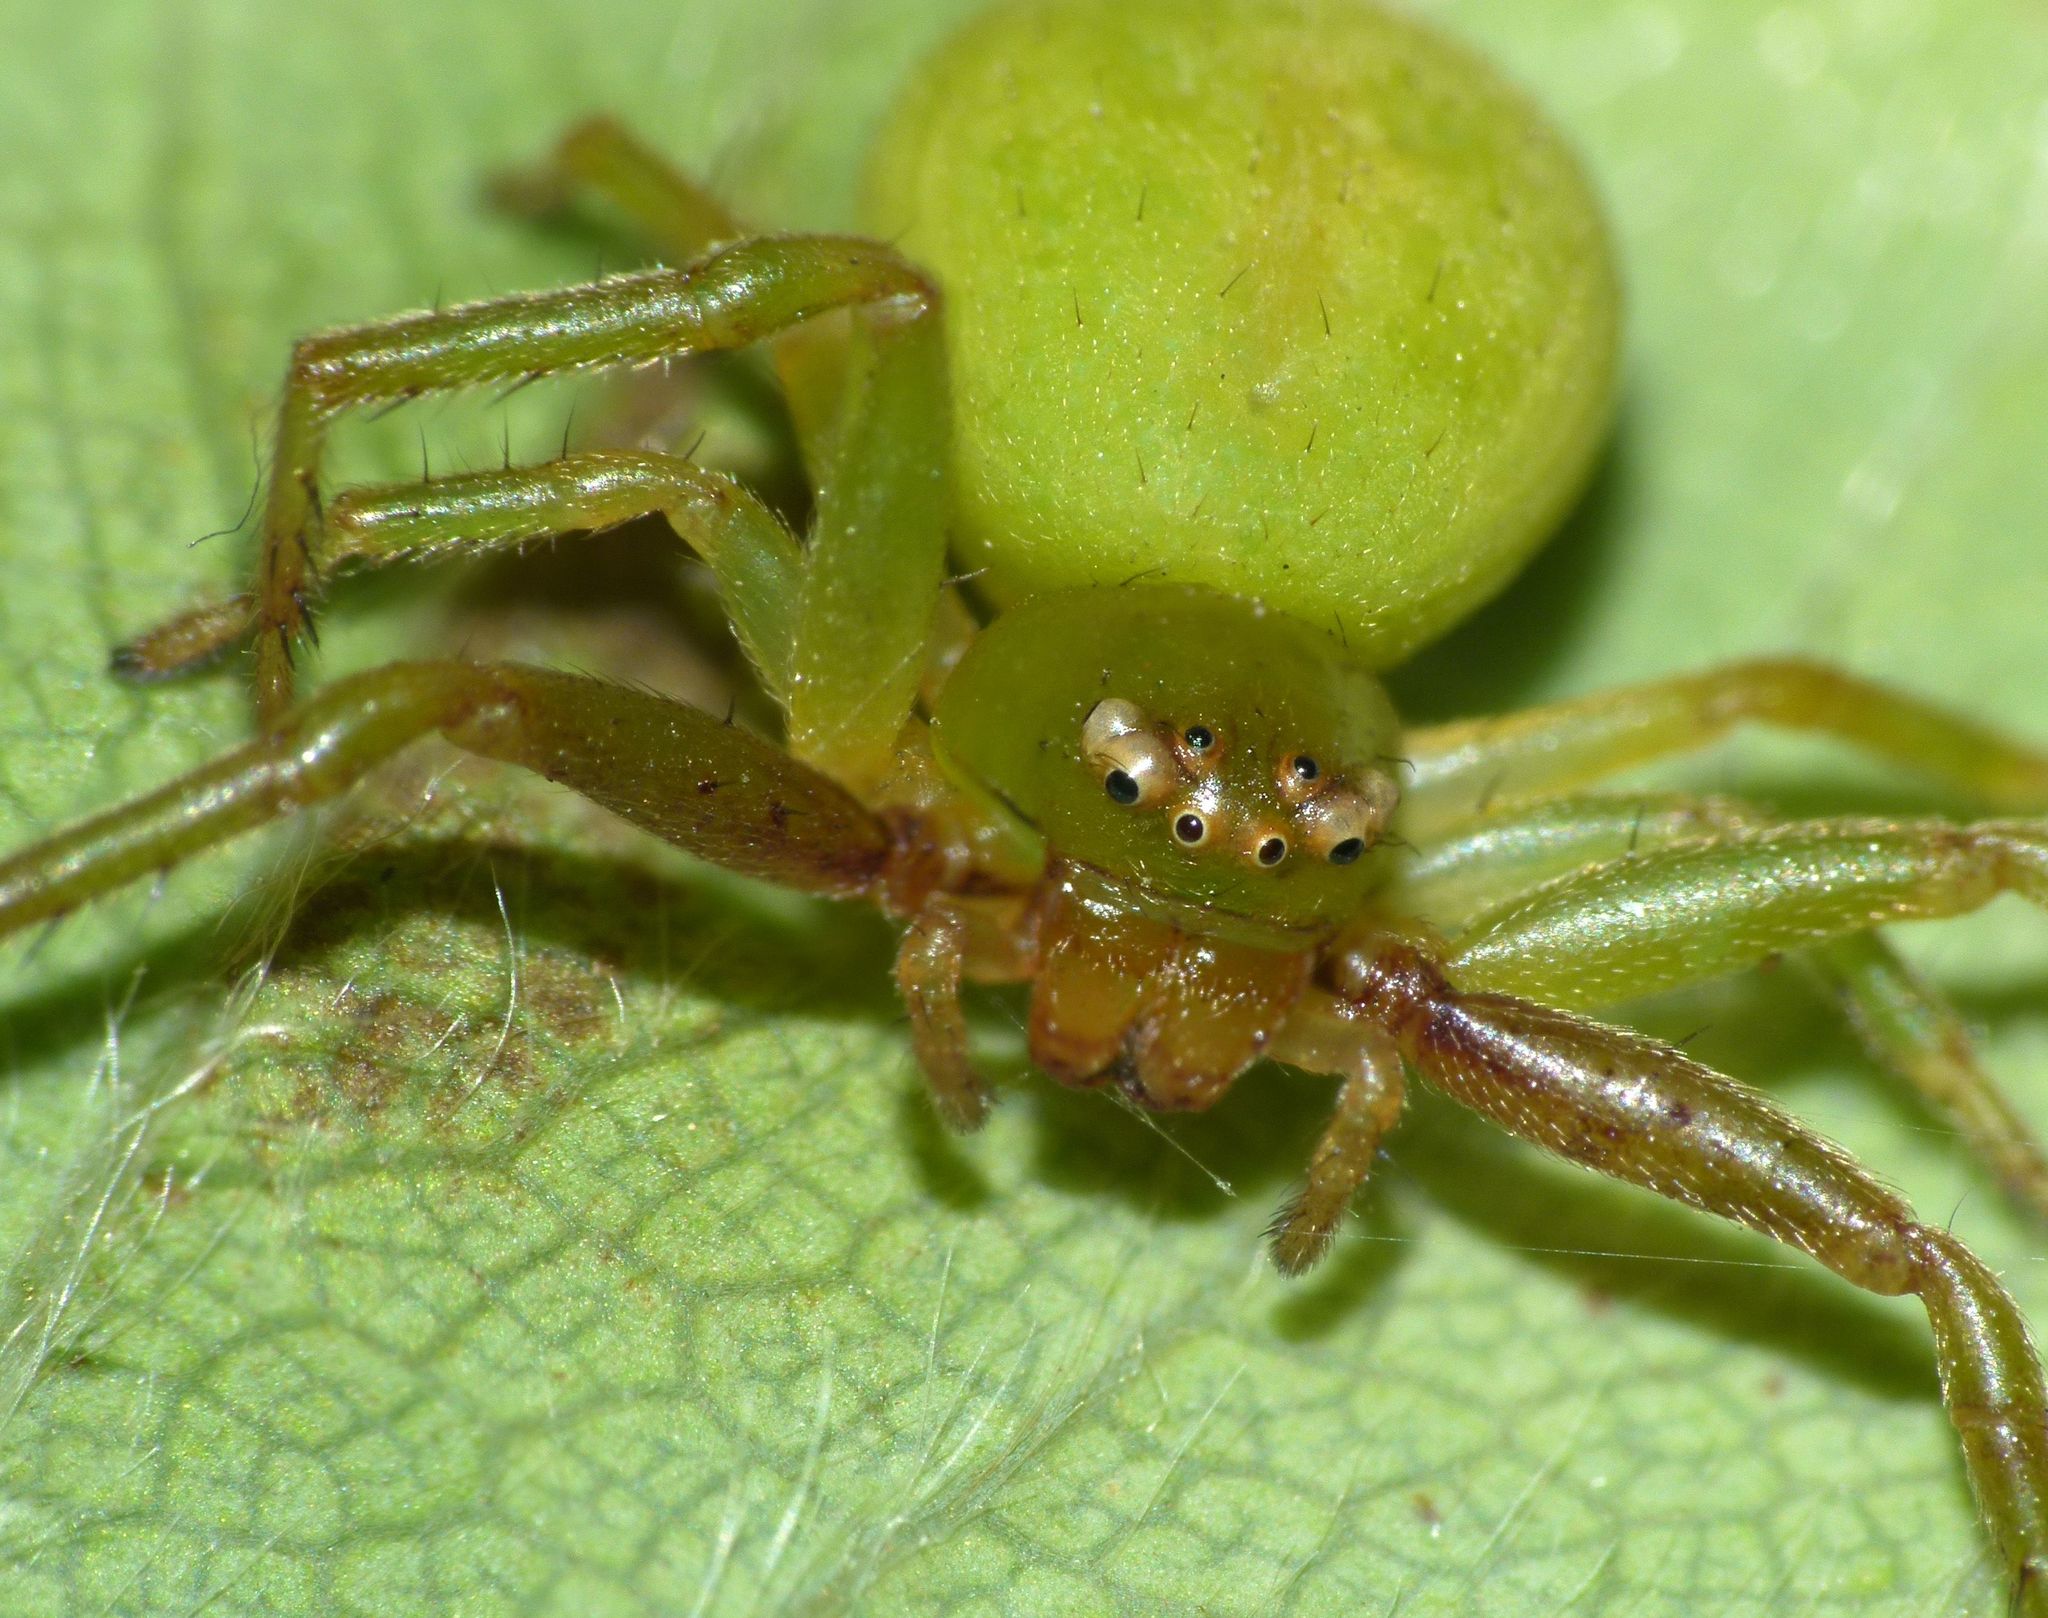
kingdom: Animalia
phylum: Arthropoda
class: Arachnida
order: Araneae
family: Thomisidae
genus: Diaea
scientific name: Diaea albolimbata
